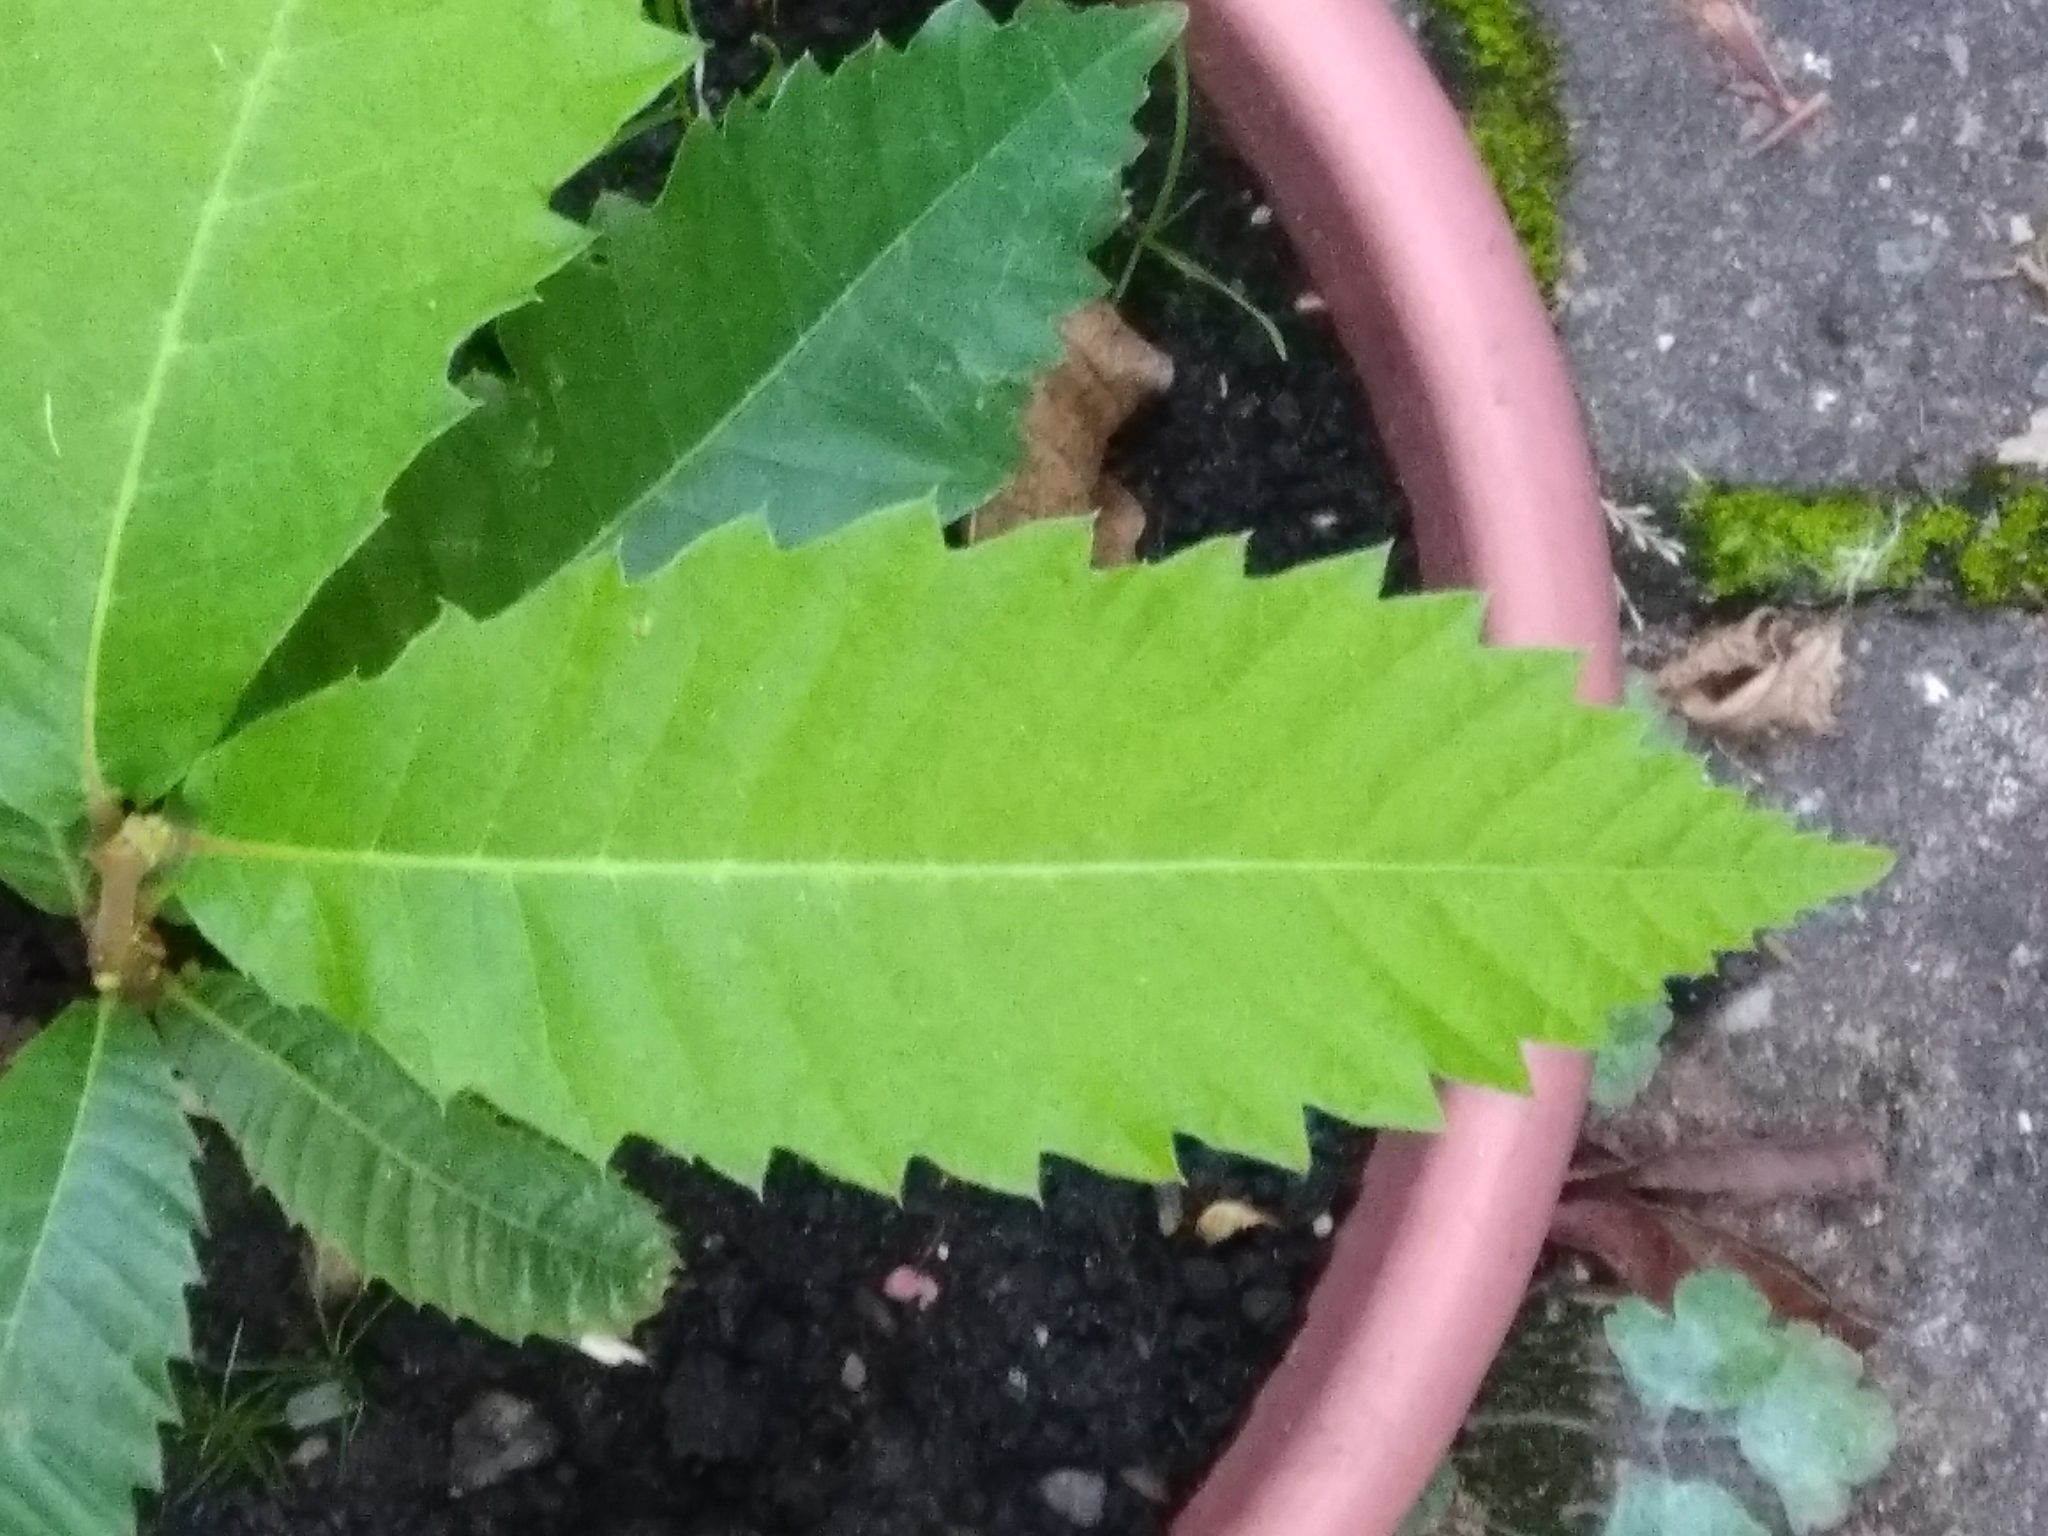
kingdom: Plantae
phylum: Tracheophyta
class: Magnoliopsida
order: Fagales
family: Fagaceae
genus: Castanea
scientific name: Castanea sativa
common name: Sweet chestnut
